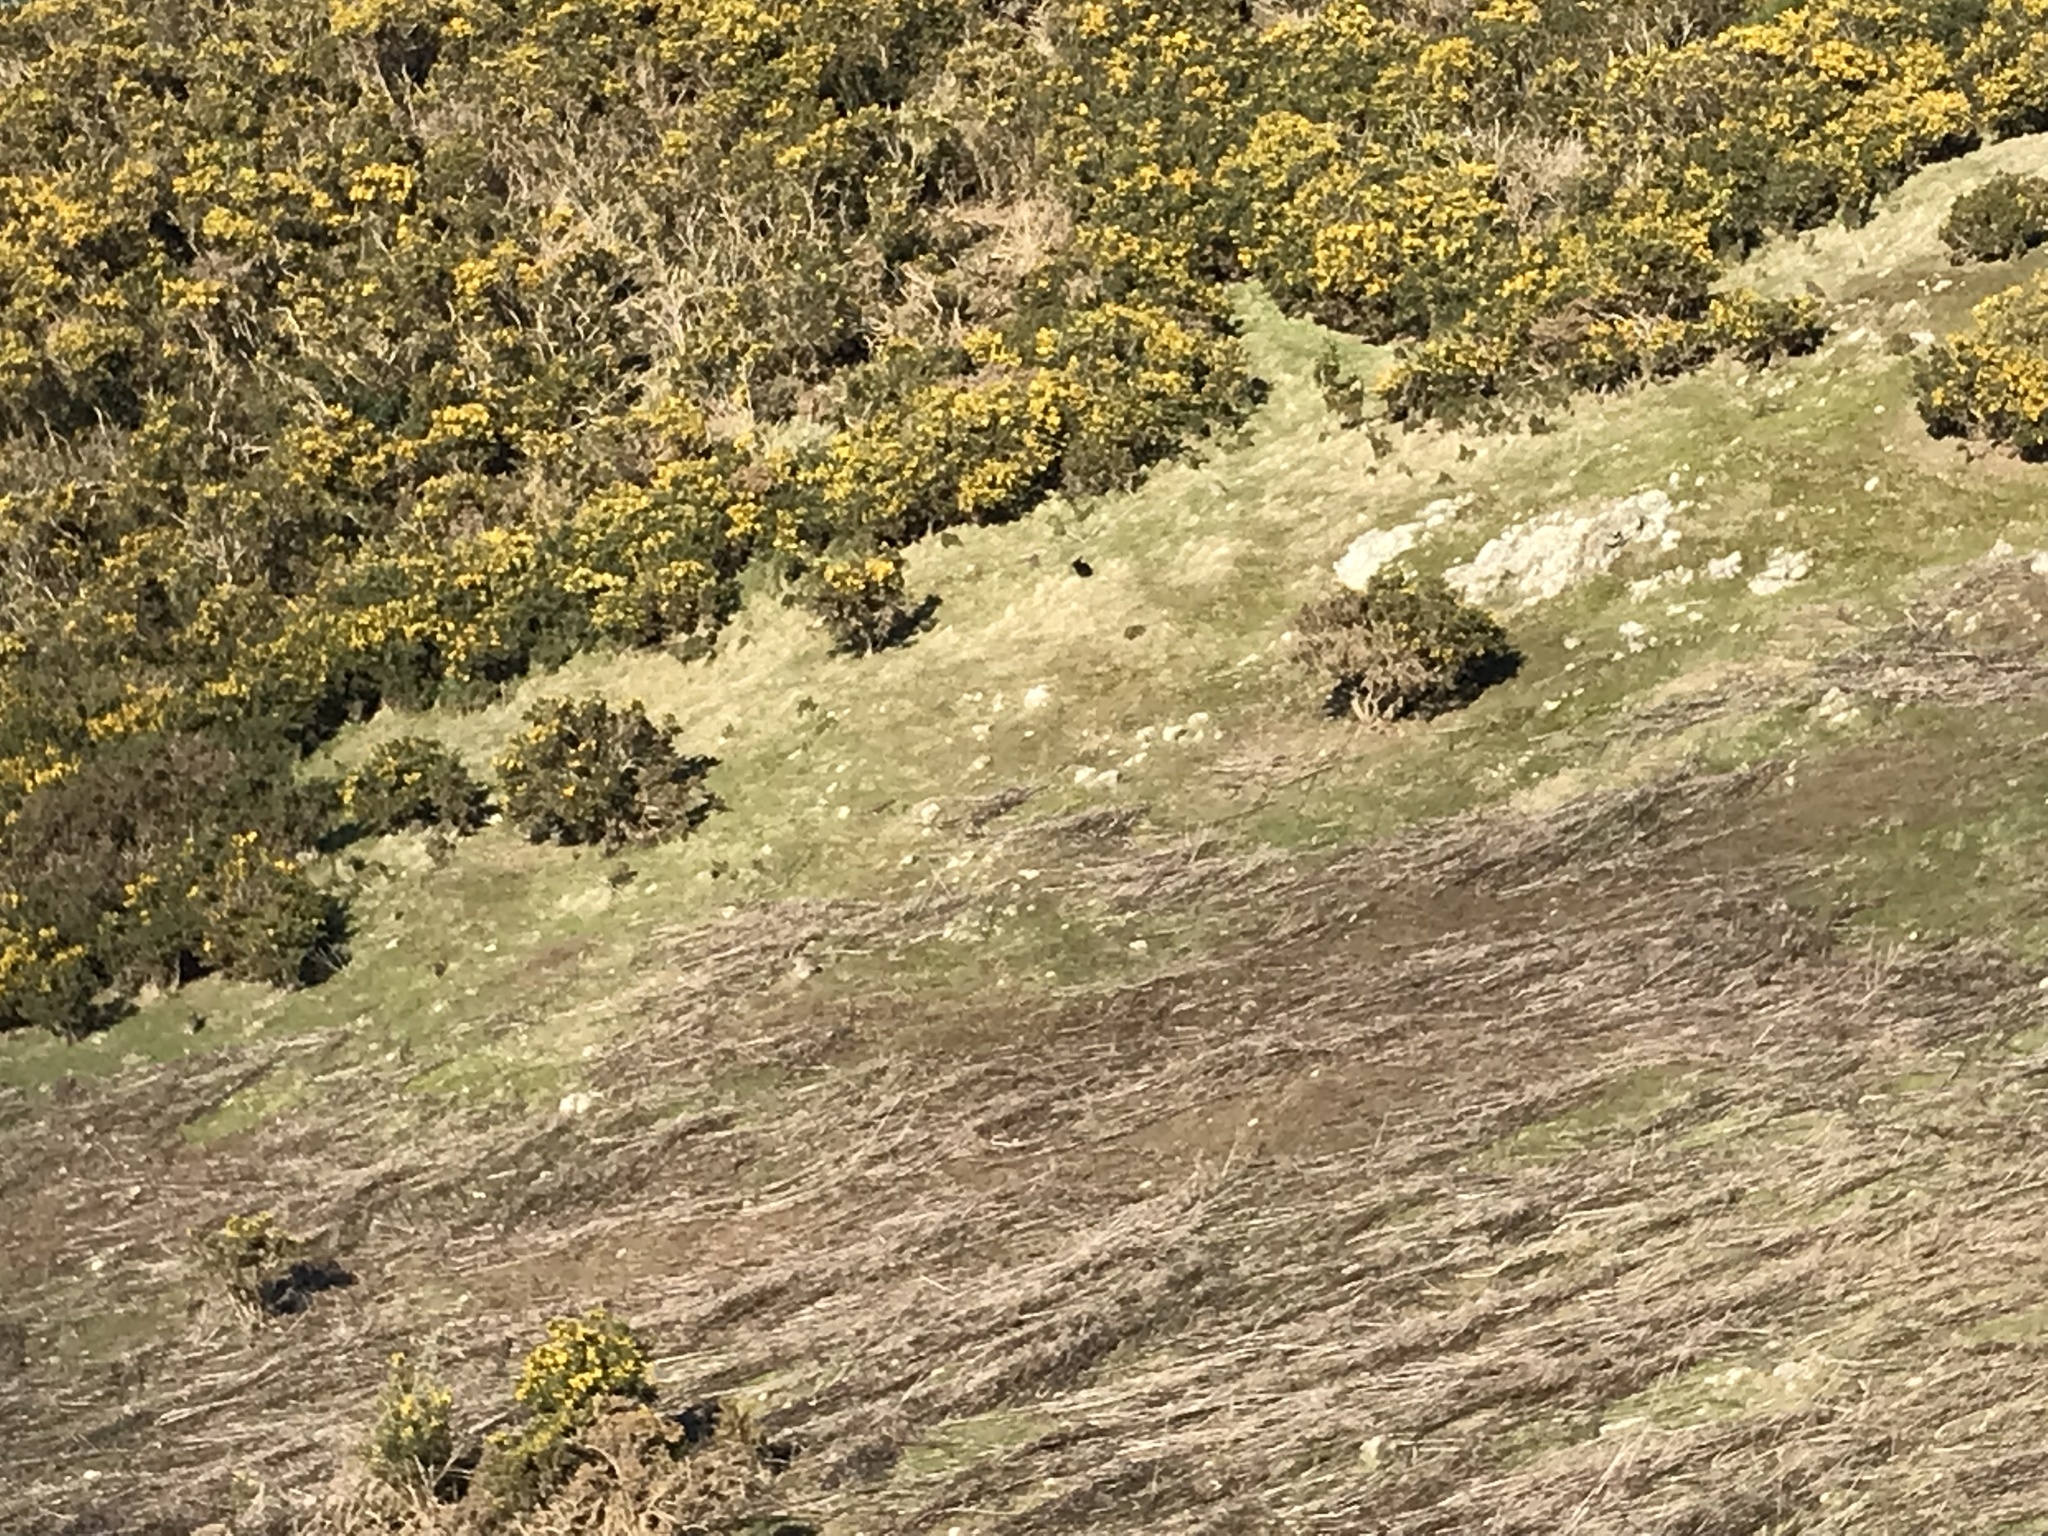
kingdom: Animalia
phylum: Chordata
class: Mammalia
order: Lagomorpha
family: Leporidae
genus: Oryctolagus
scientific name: Oryctolagus cuniculus
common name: European rabbit
